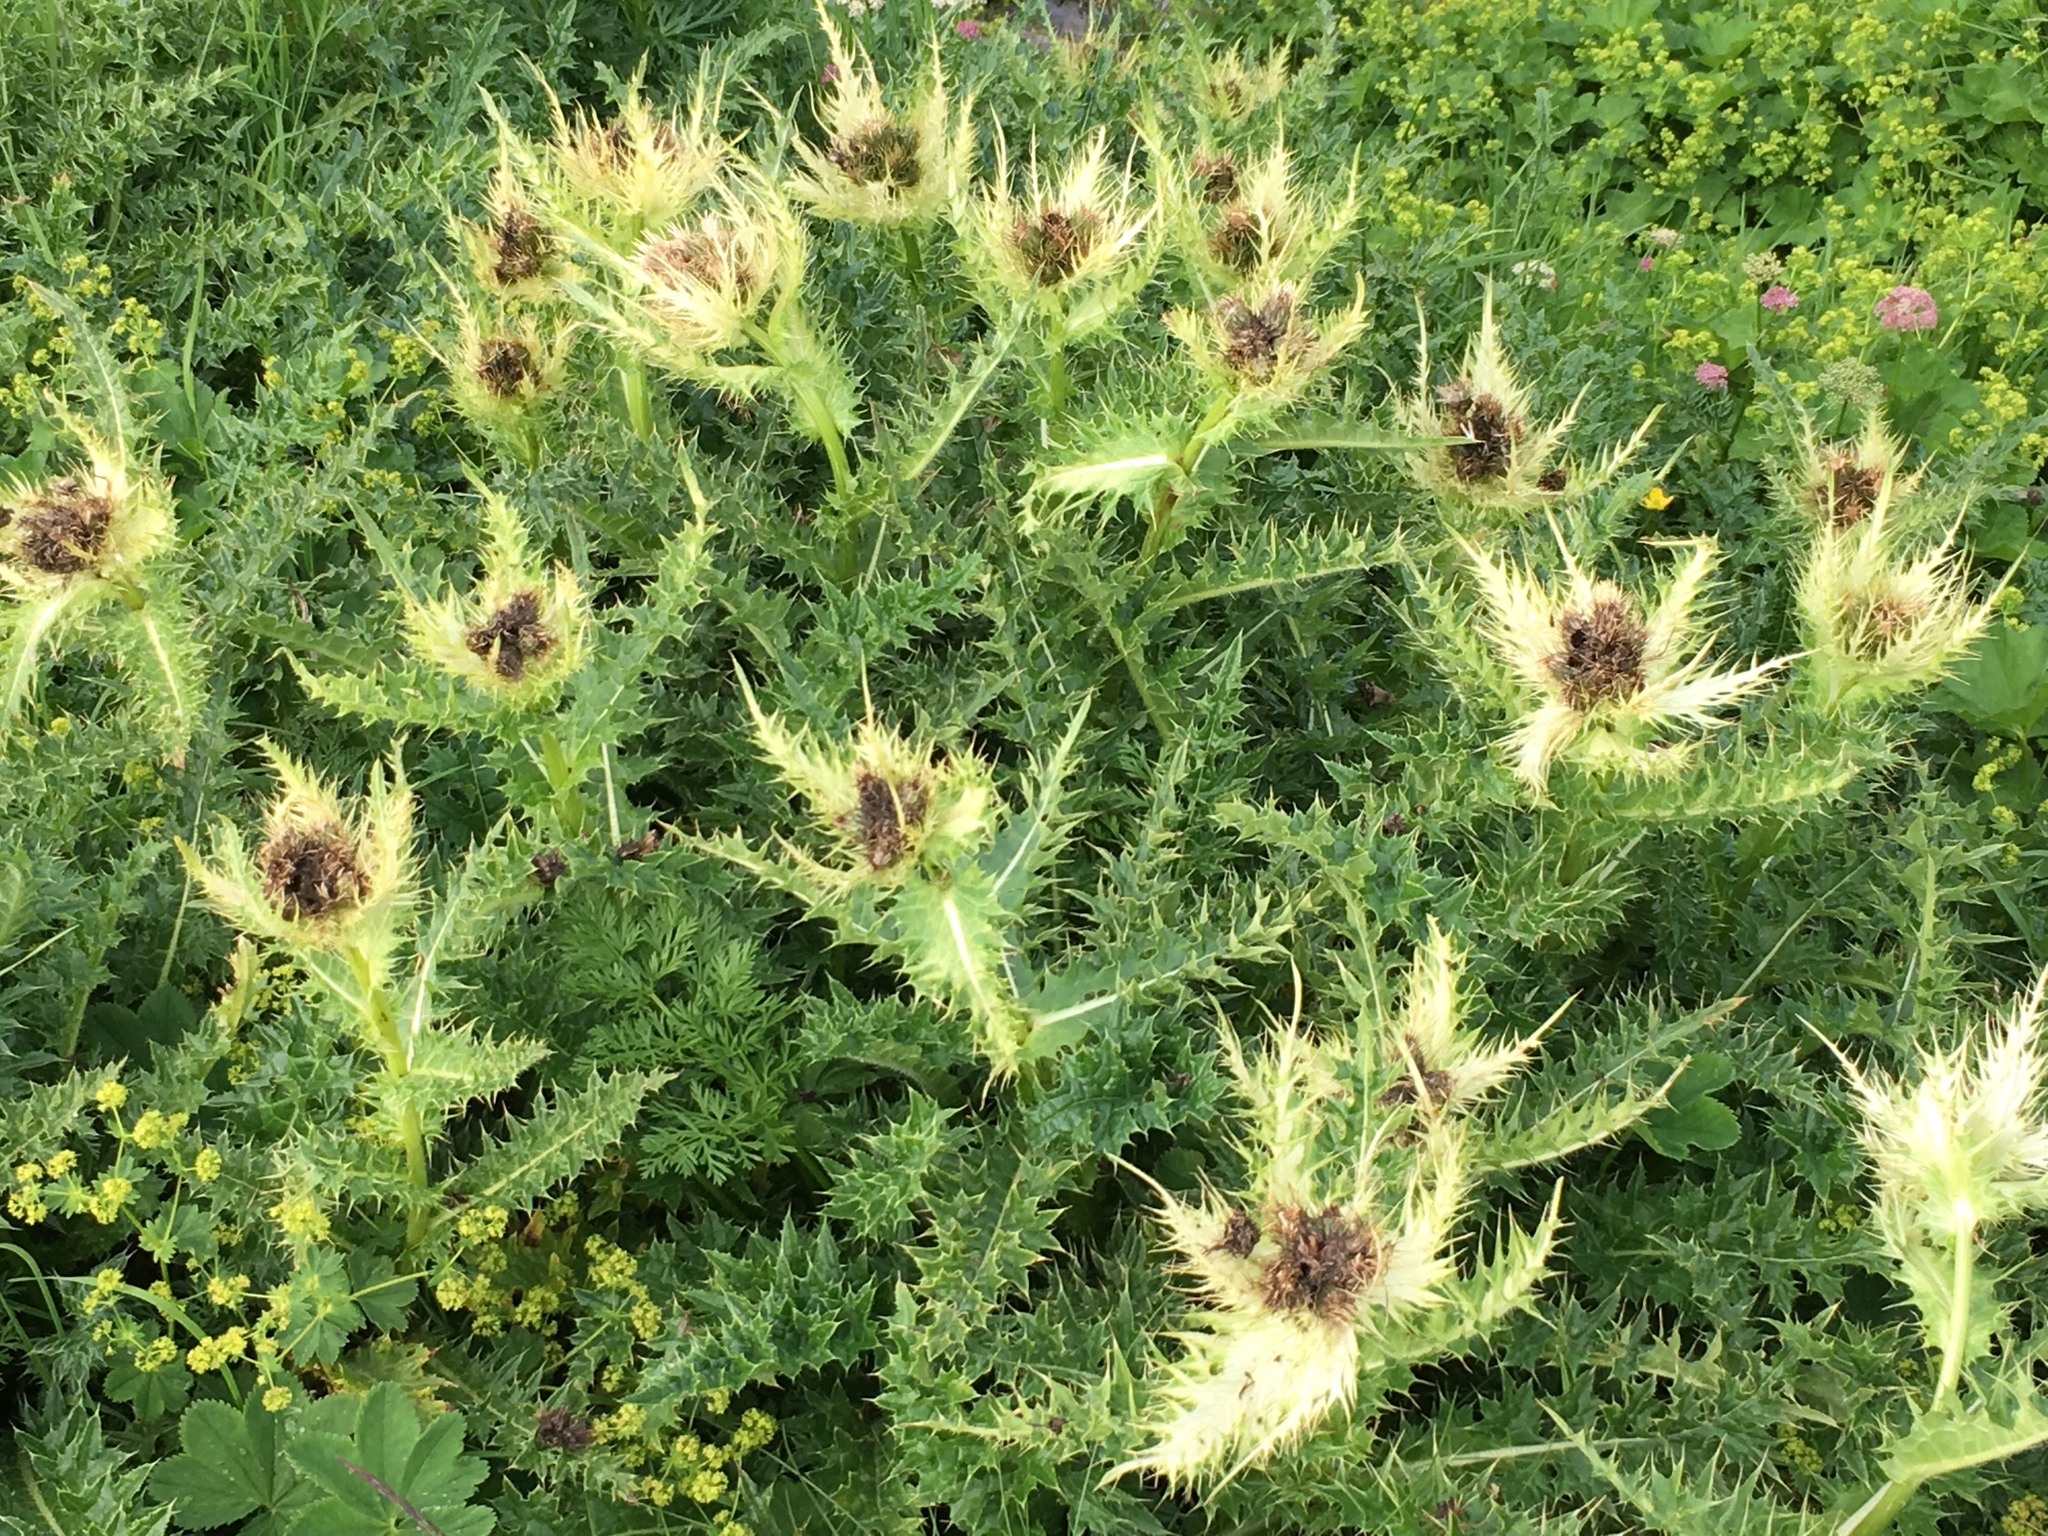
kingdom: Plantae
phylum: Tracheophyta
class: Magnoliopsida
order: Asterales
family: Asteraceae
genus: Cirsium
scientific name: Cirsium spinosissimum
